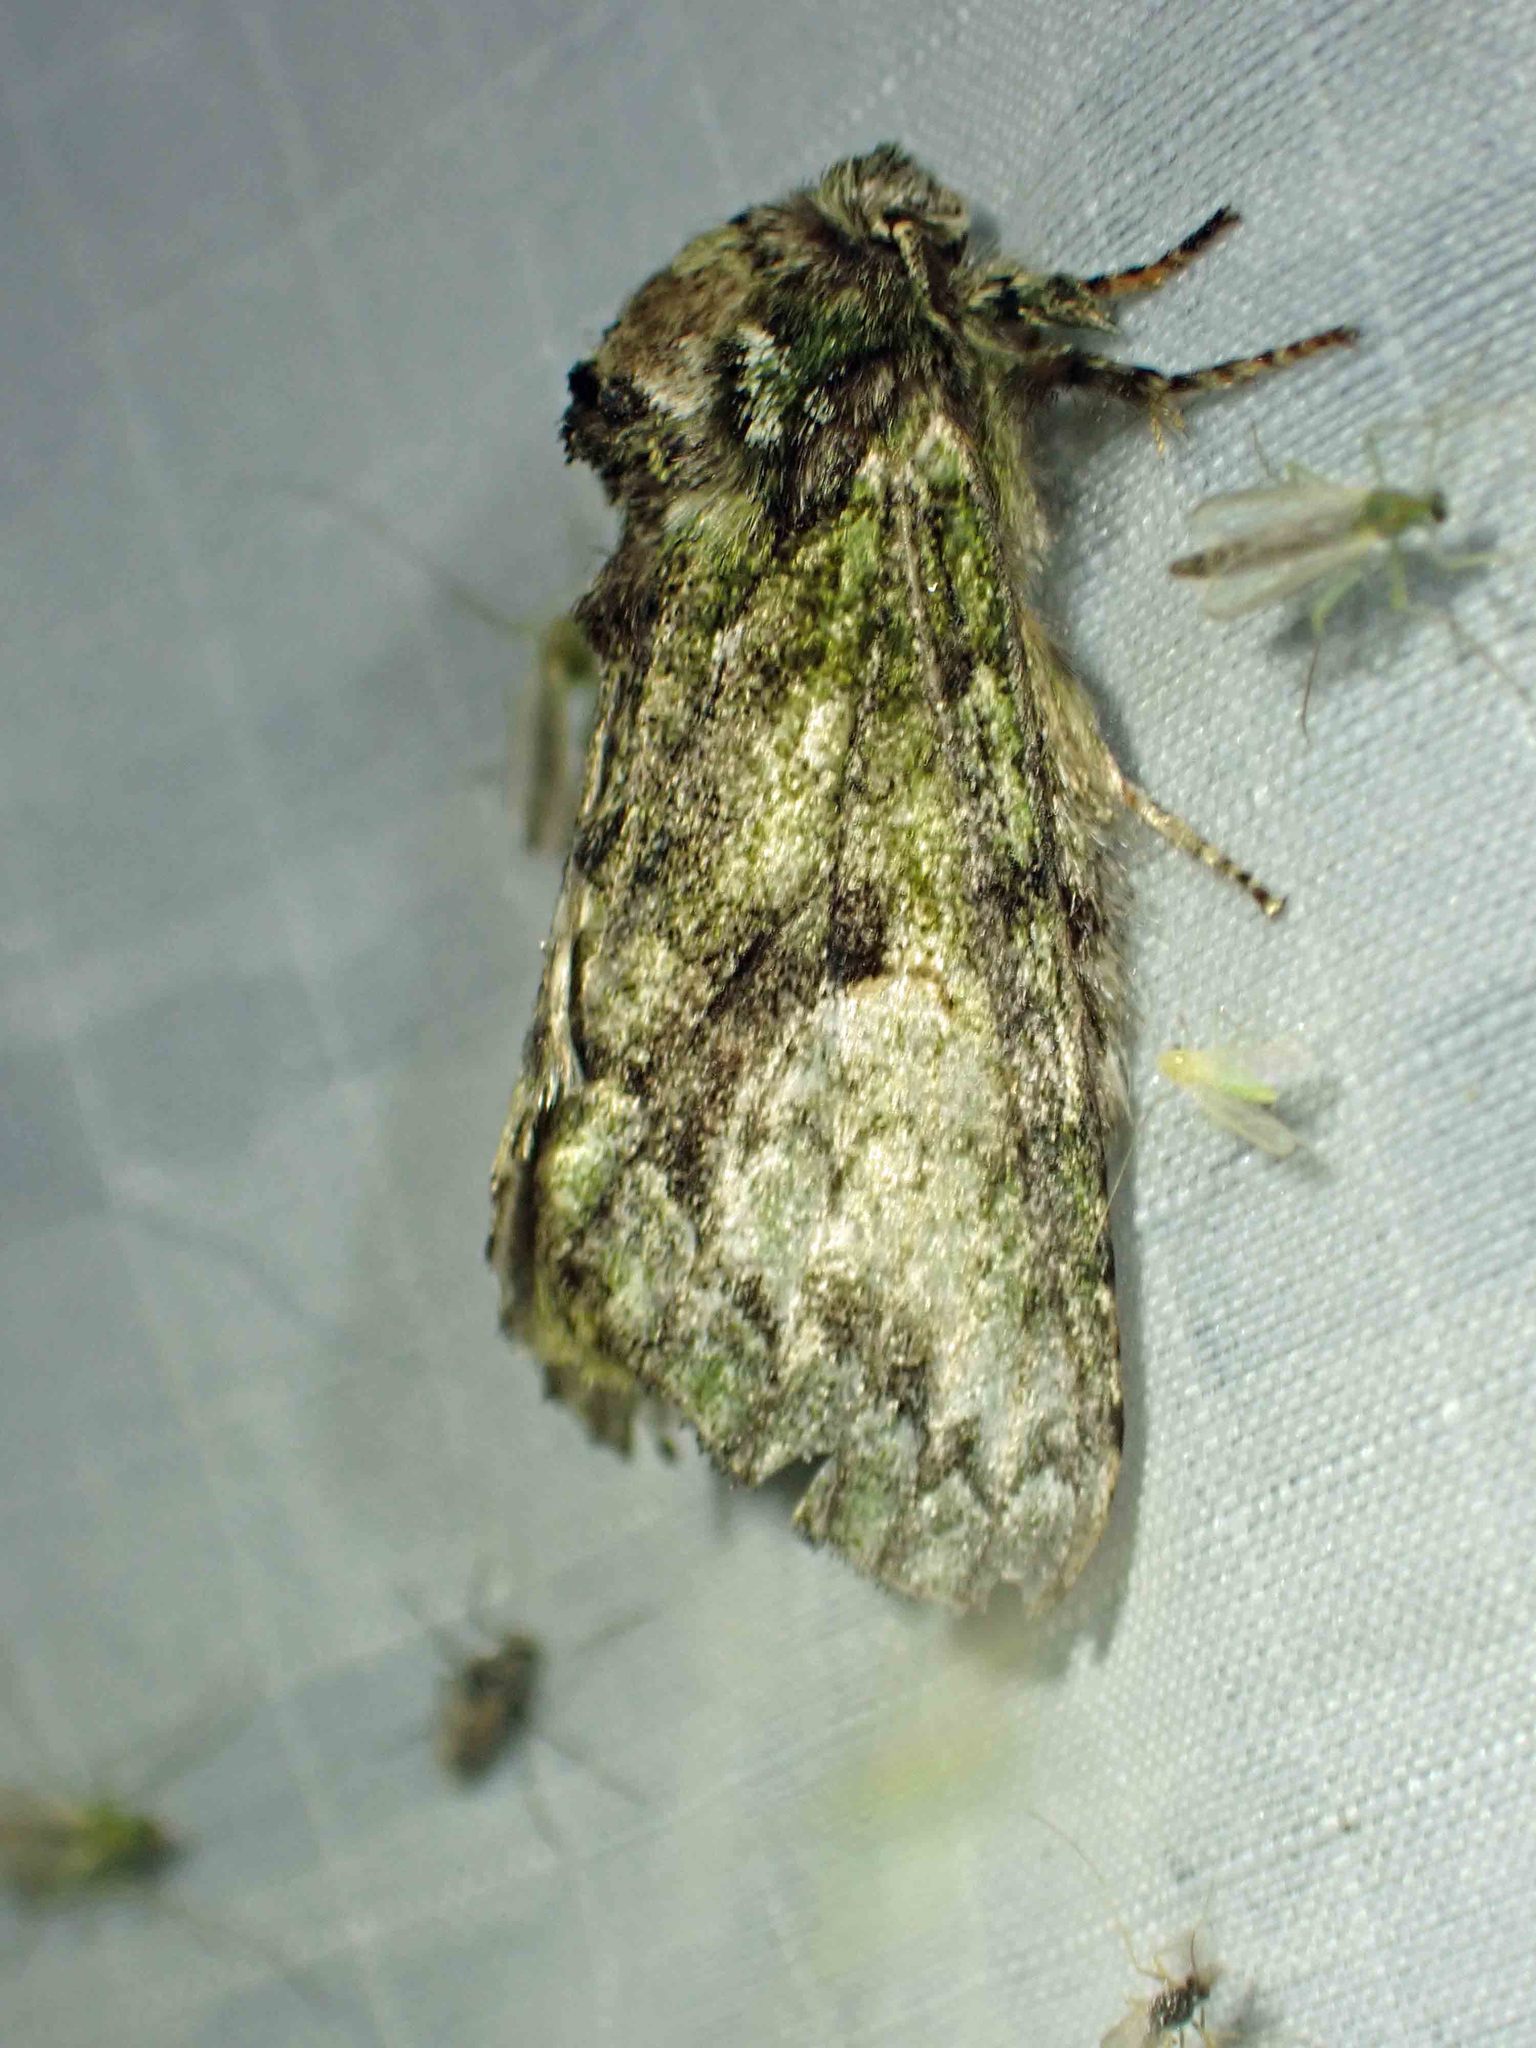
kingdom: Animalia
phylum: Arthropoda
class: Insecta
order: Lepidoptera
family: Notodontidae
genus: Heterocampa
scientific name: Heterocampa
